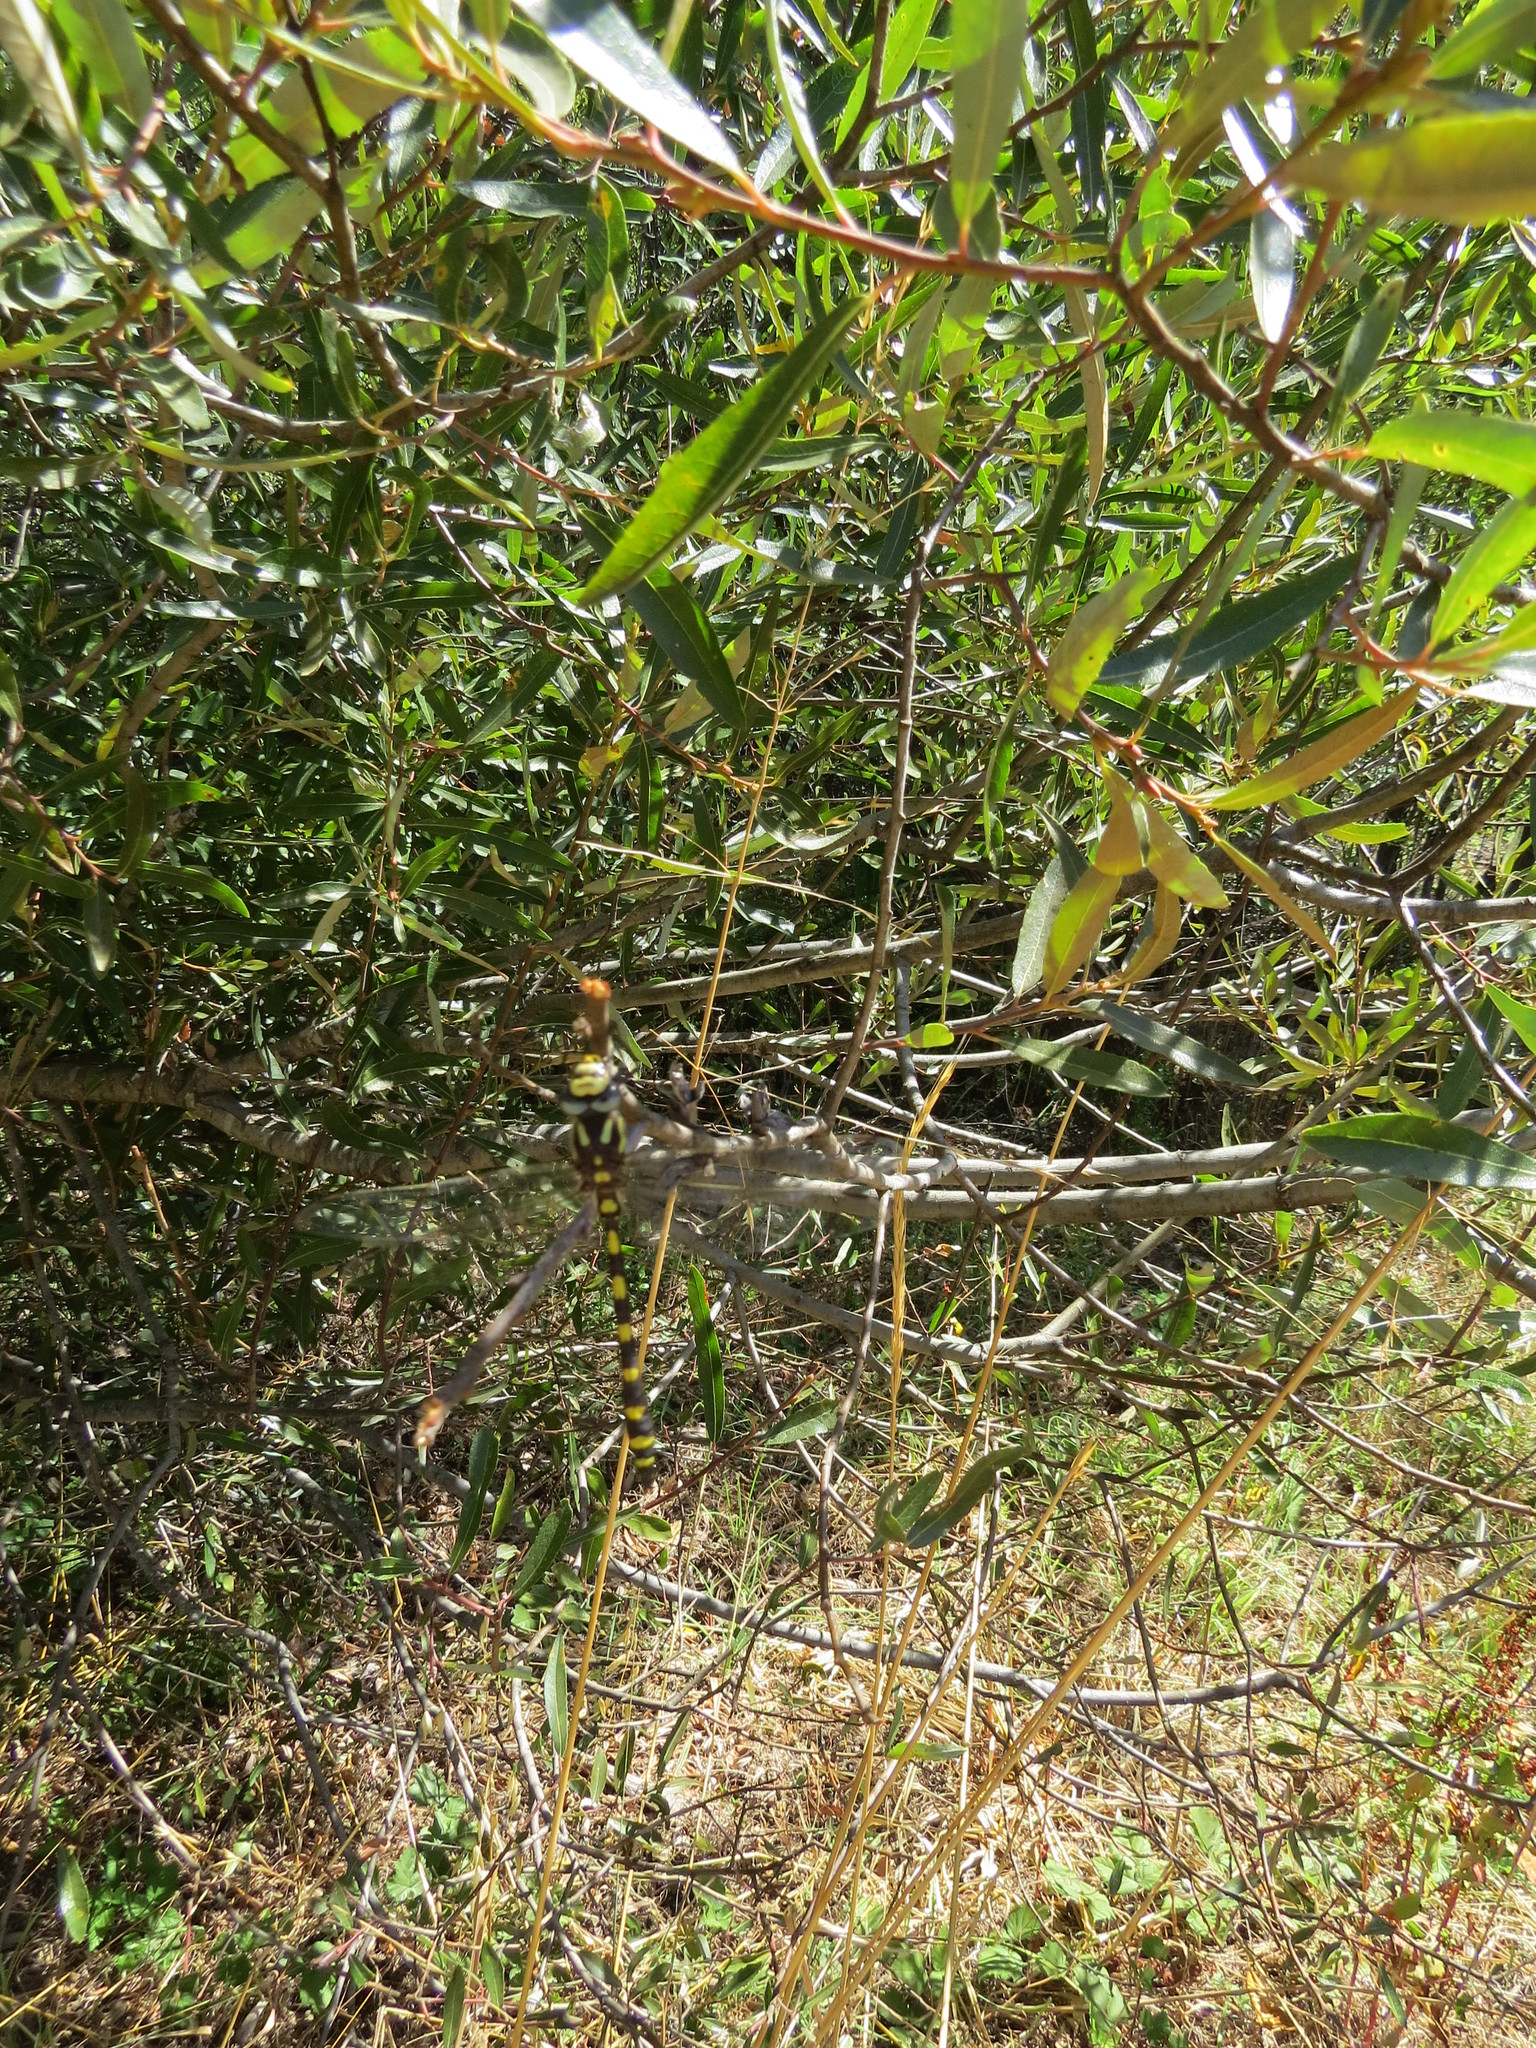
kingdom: Animalia
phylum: Arthropoda
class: Insecta
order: Odonata
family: Cordulegastridae
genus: Cordulegaster
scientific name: Cordulegaster dorsalis
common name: Pacific spiketail
